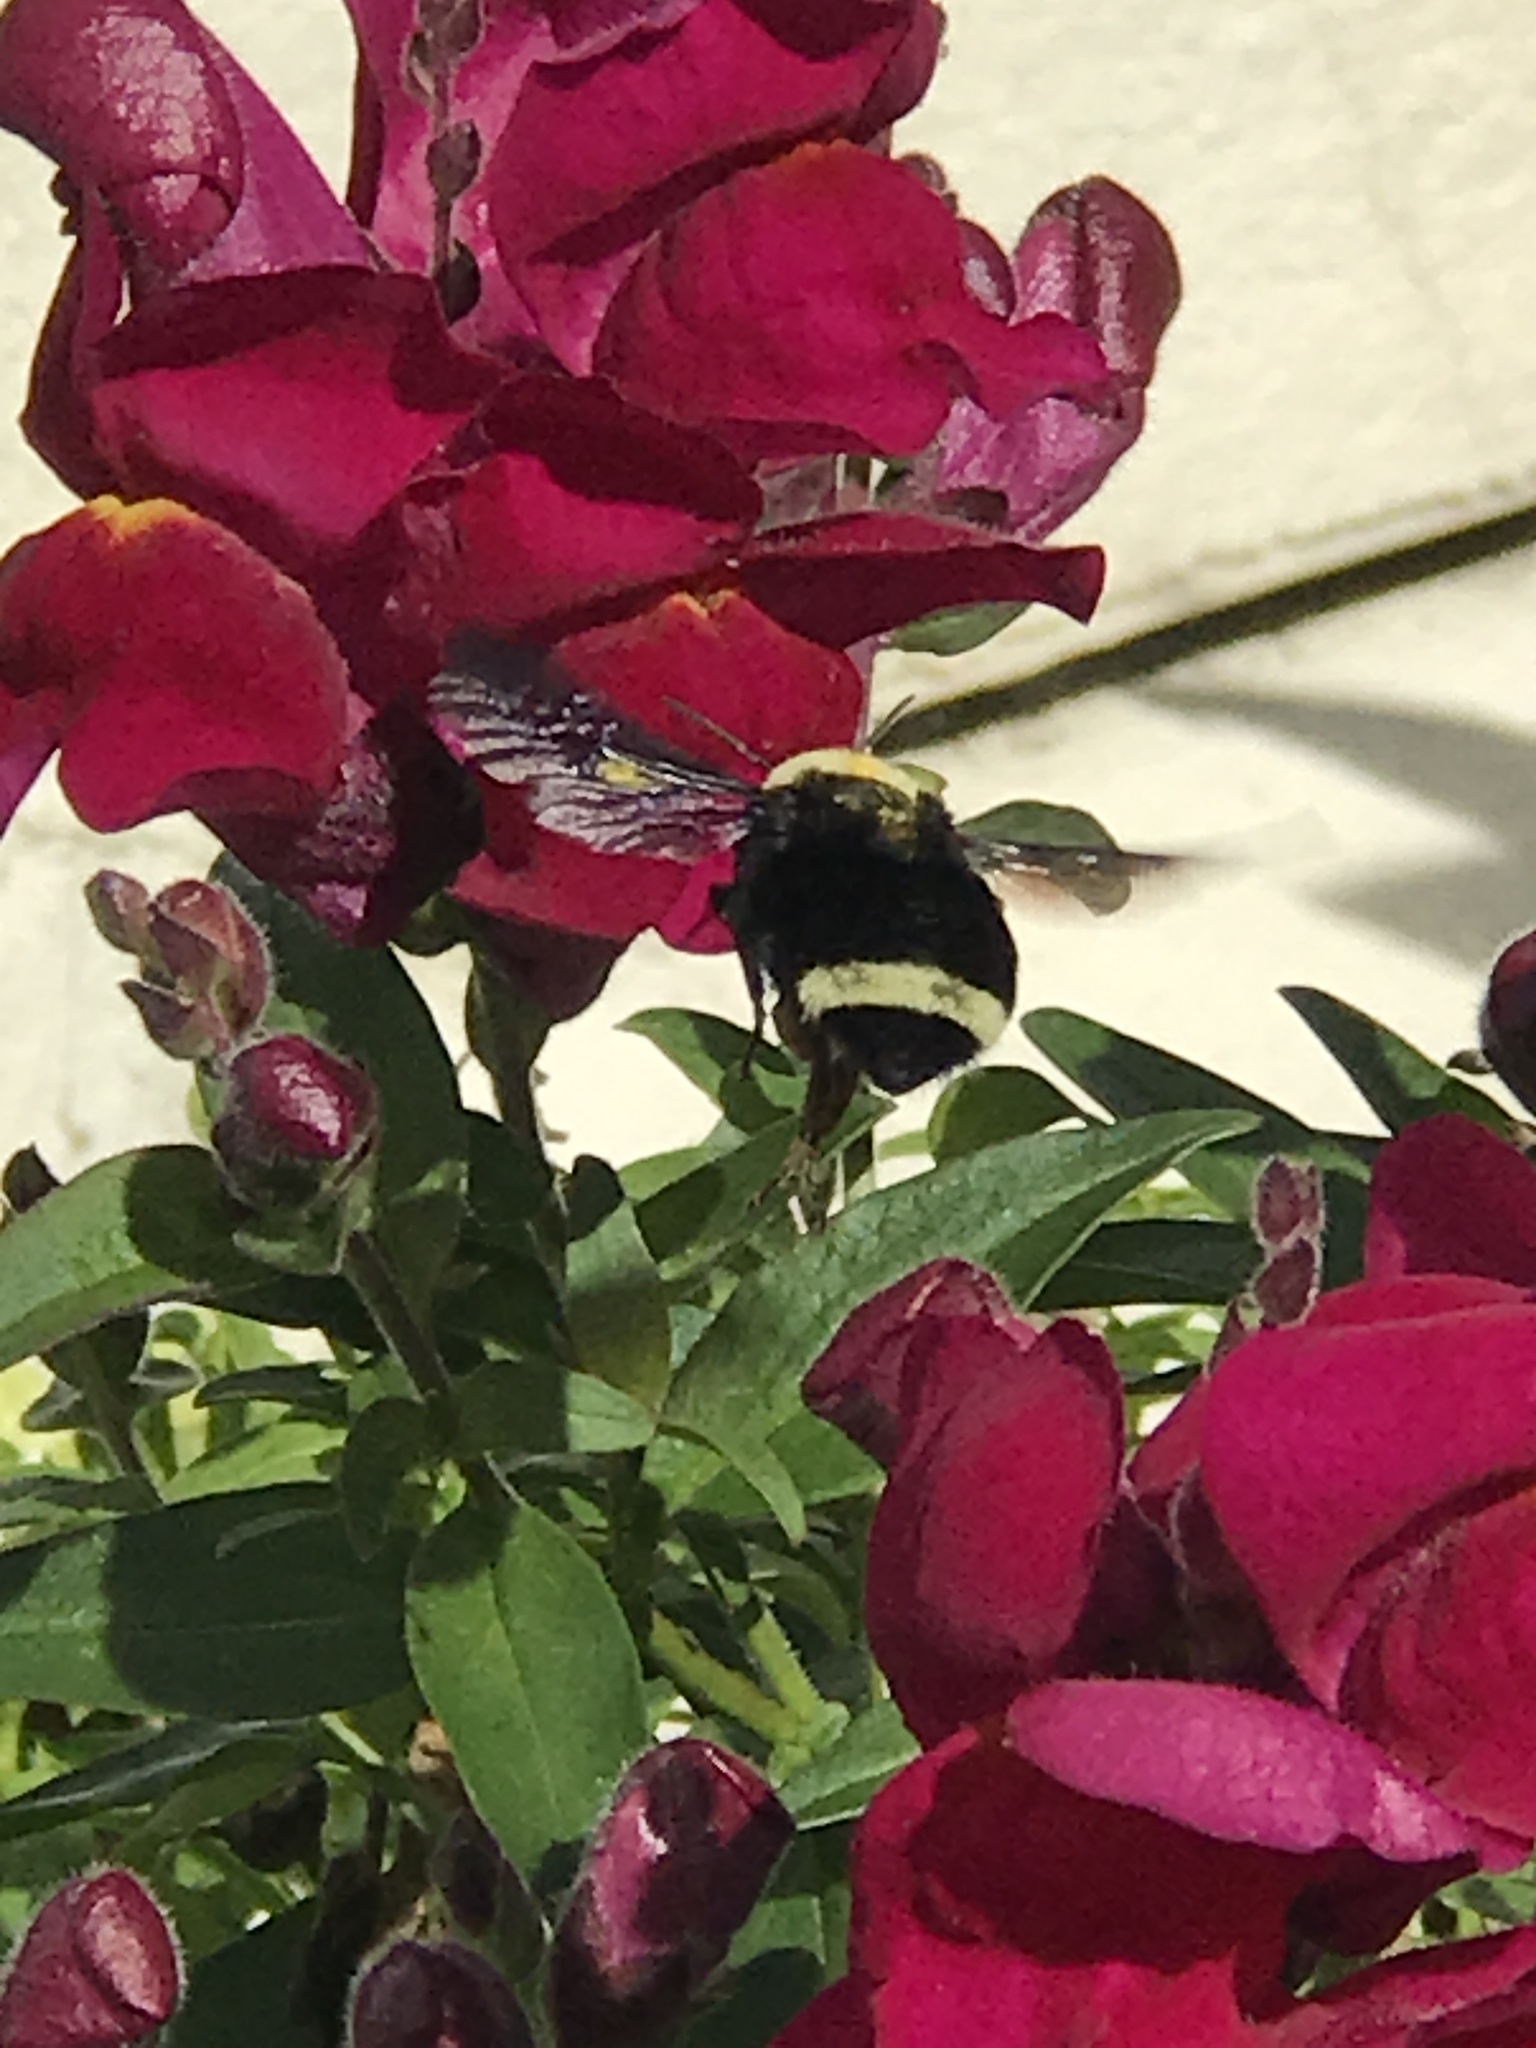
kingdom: Animalia
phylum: Arthropoda
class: Insecta
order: Hymenoptera
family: Apidae
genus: Pyrobombus
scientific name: Pyrobombus
